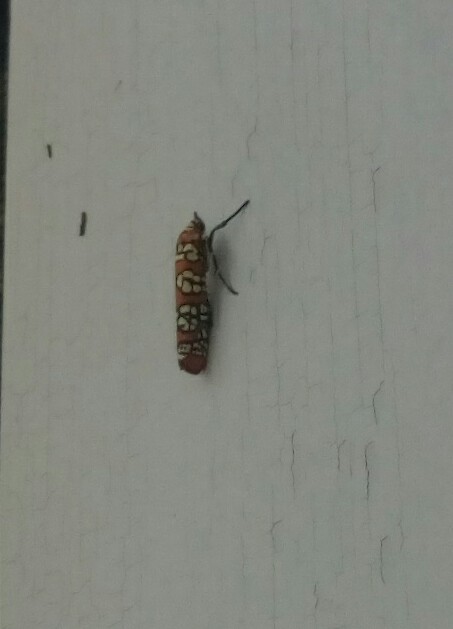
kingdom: Animalia
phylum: Arthropoda
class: Insecta
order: Lepidoptera
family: Attevidae
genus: Atteva
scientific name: Atteva punctella
